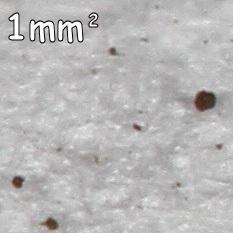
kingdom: Fungi
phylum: Basidiomycota
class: Agaricomycetes
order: Geastrales
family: Geastraceae
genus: Geastrum
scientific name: Geastrum triplex
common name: Collared earthstar
